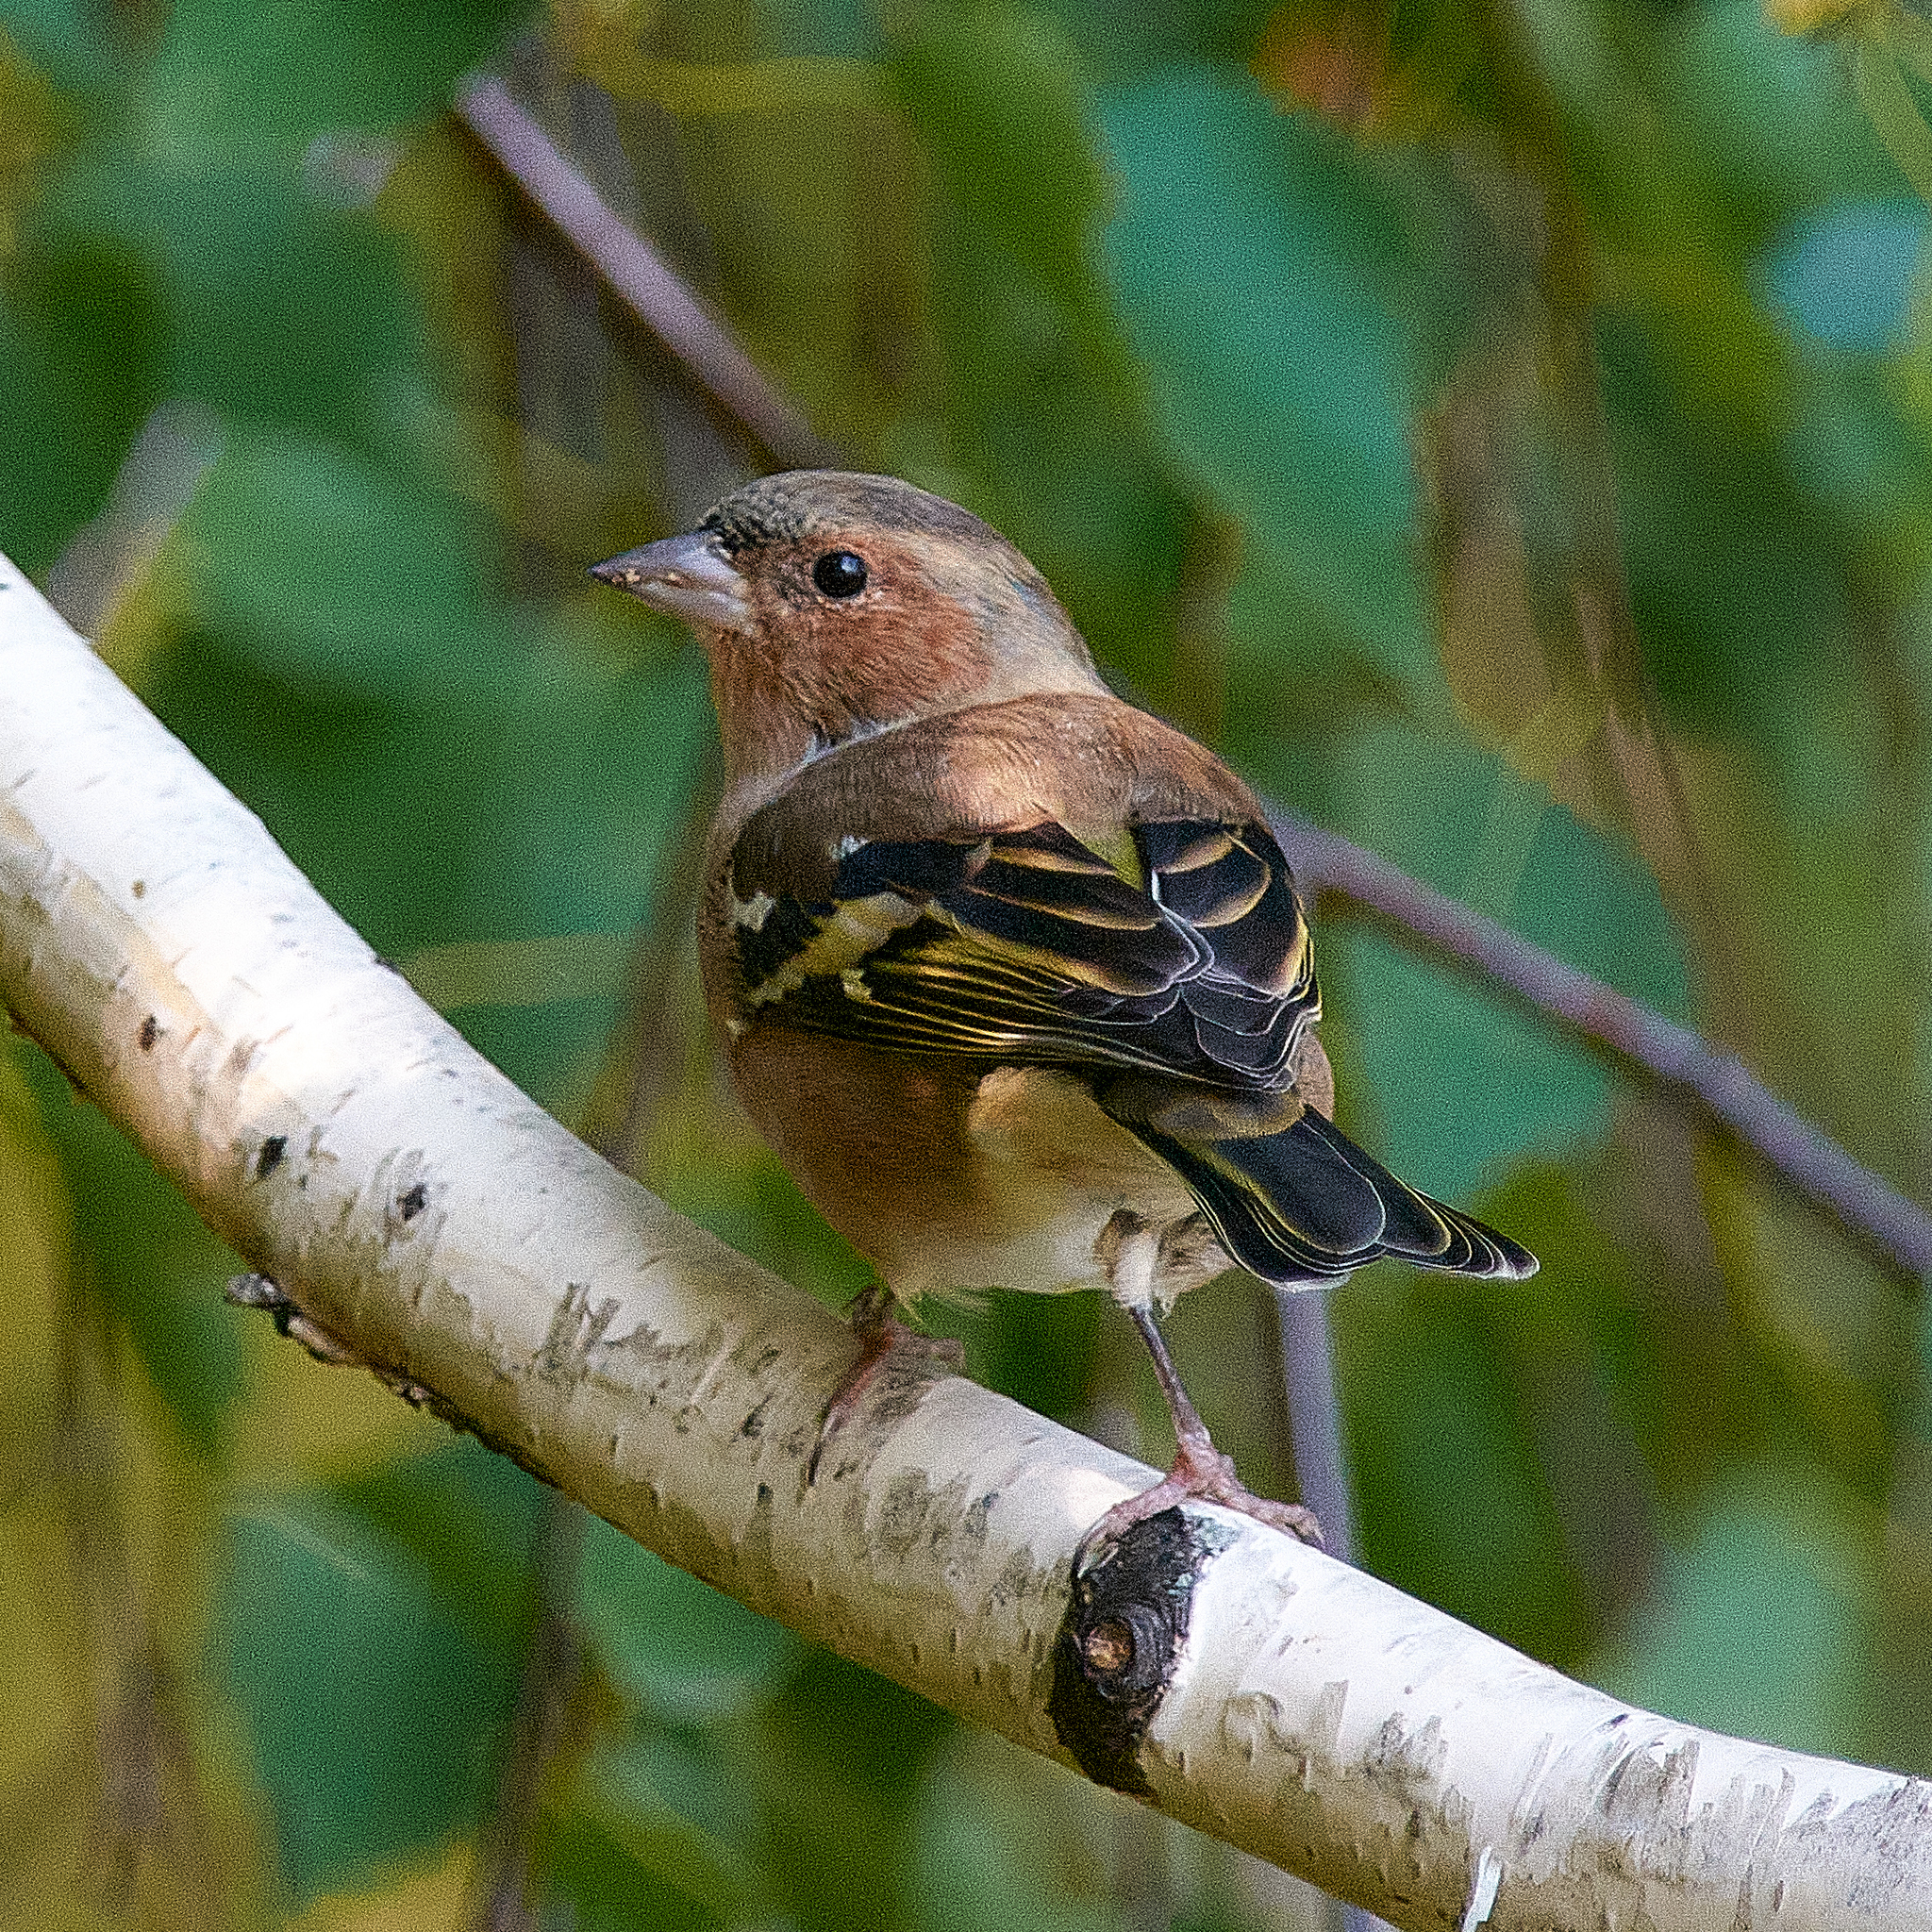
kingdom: Animalia
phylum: Chordata
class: Aves
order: Passeriformes
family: Fringillidae
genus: Fringilla
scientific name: Fringilla coelebs
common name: Common chaffinch
